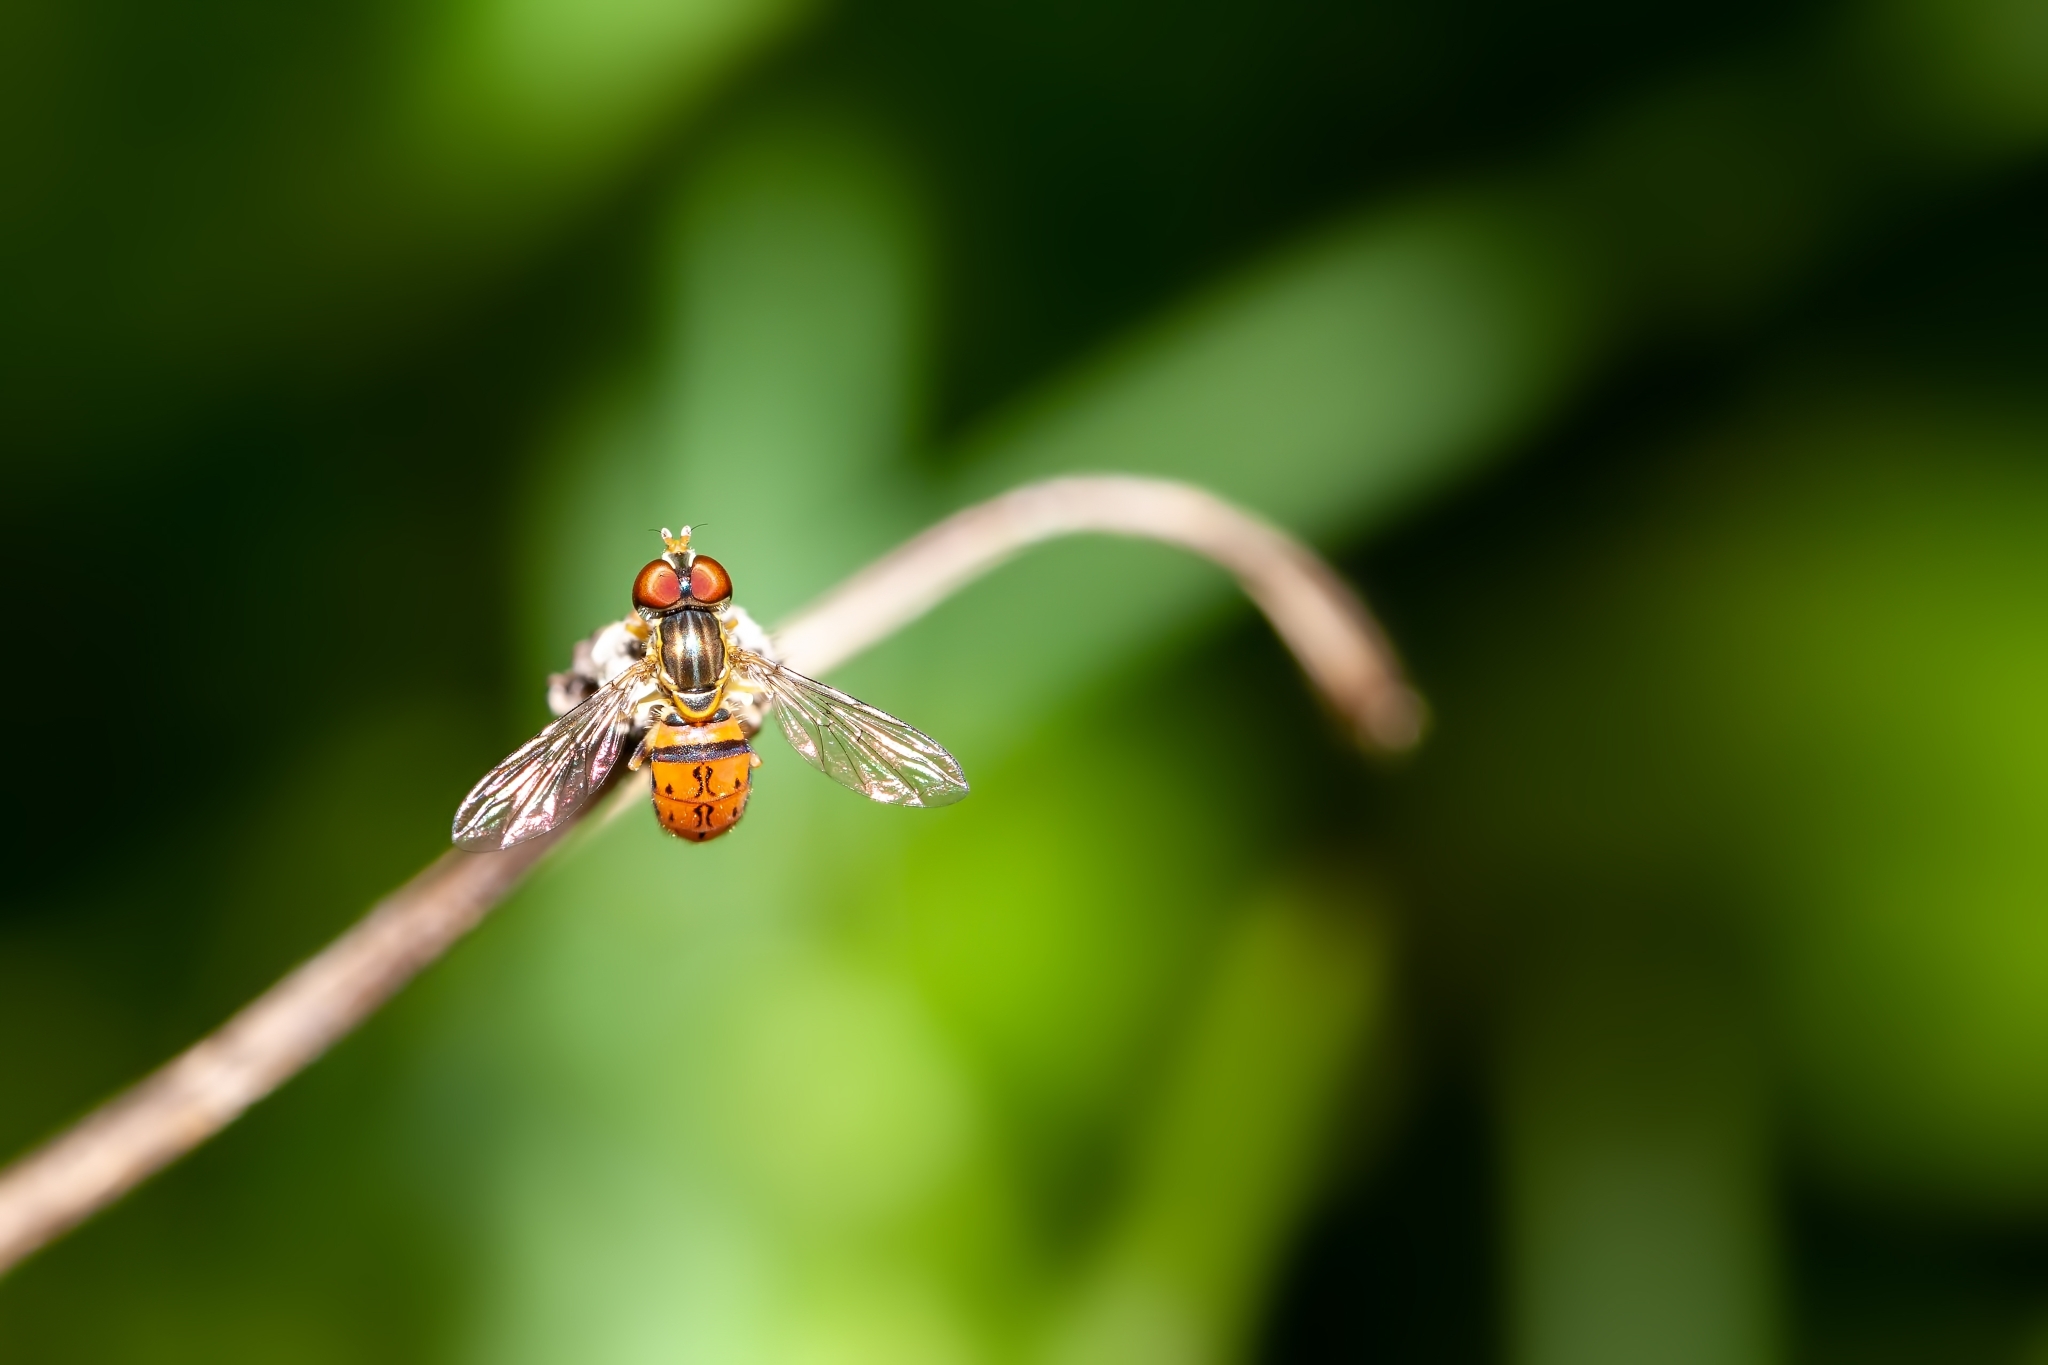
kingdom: Animalia
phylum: Arthropoda
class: Insecta
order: Diptera
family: Syrphidae
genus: Toxomerus
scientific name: Toxomerus boscii
